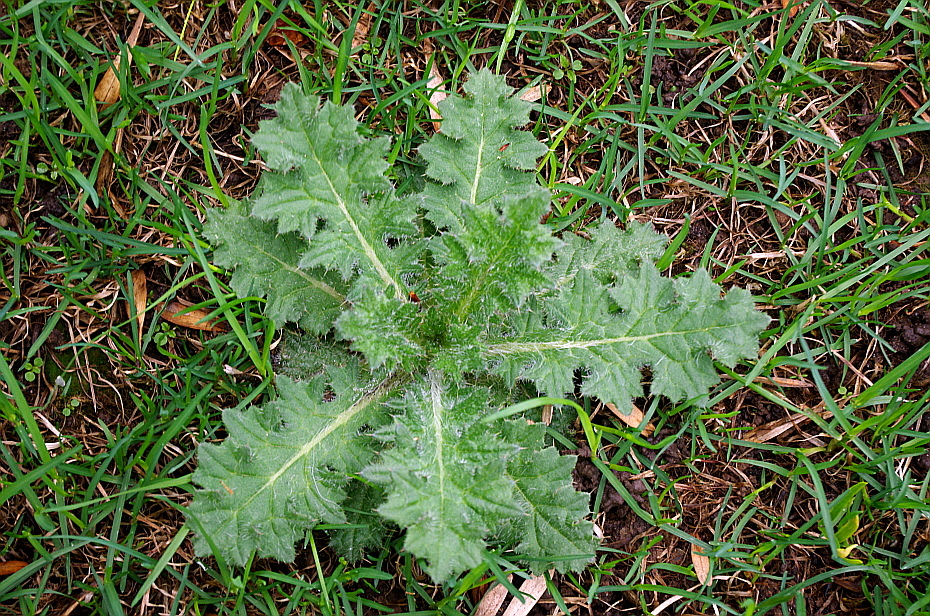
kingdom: Plantae
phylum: Tracheophyta
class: Magnoliopsida
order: Asterales
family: Asteraceae
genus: Cirsium
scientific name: Cirsium vulgare
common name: Bull thistle
